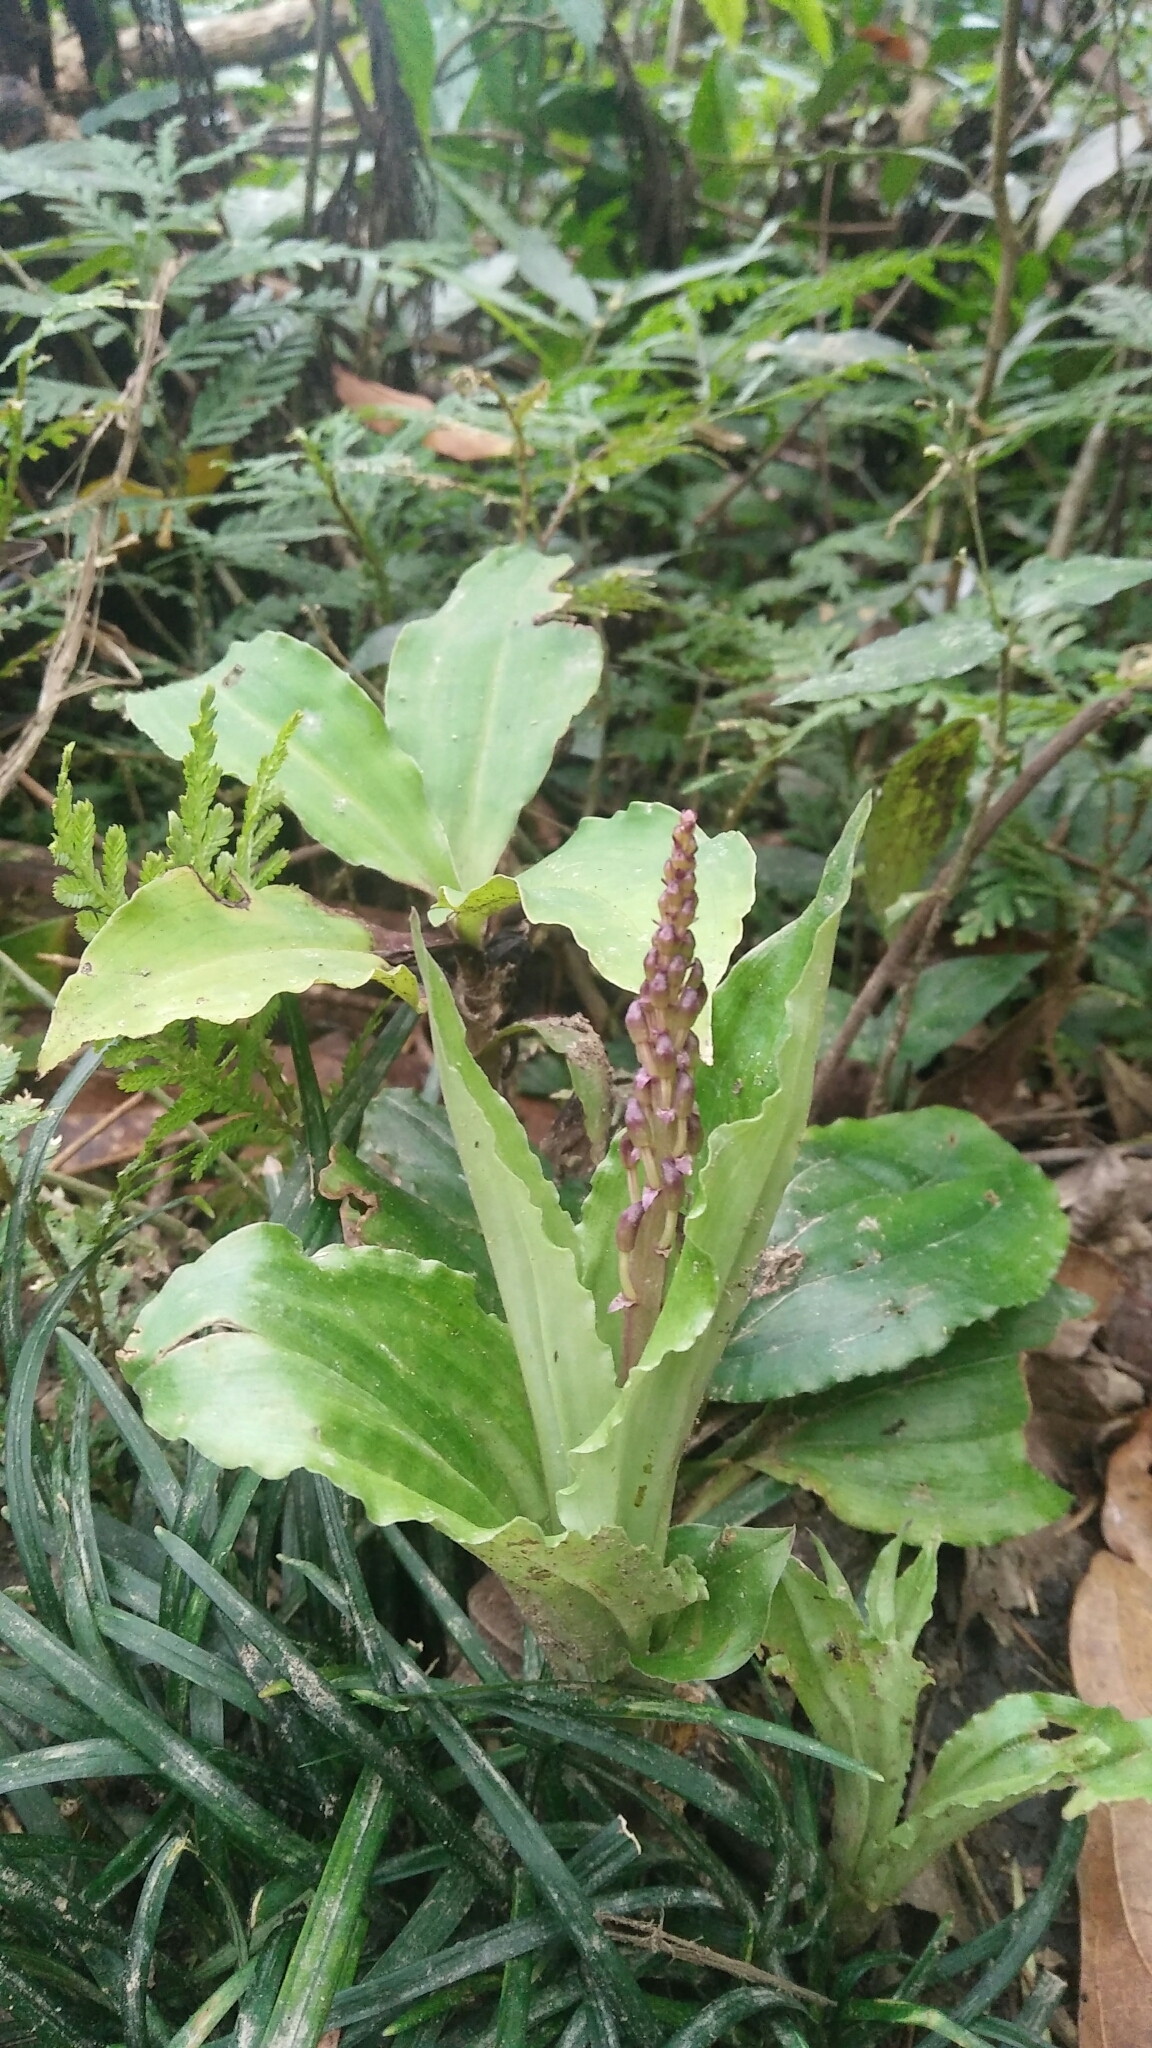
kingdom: Plantae
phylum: Tracheophyta
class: Liliopsida
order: Asparagales
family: Orchidaceae
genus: Liparis
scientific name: Liparis formosana
